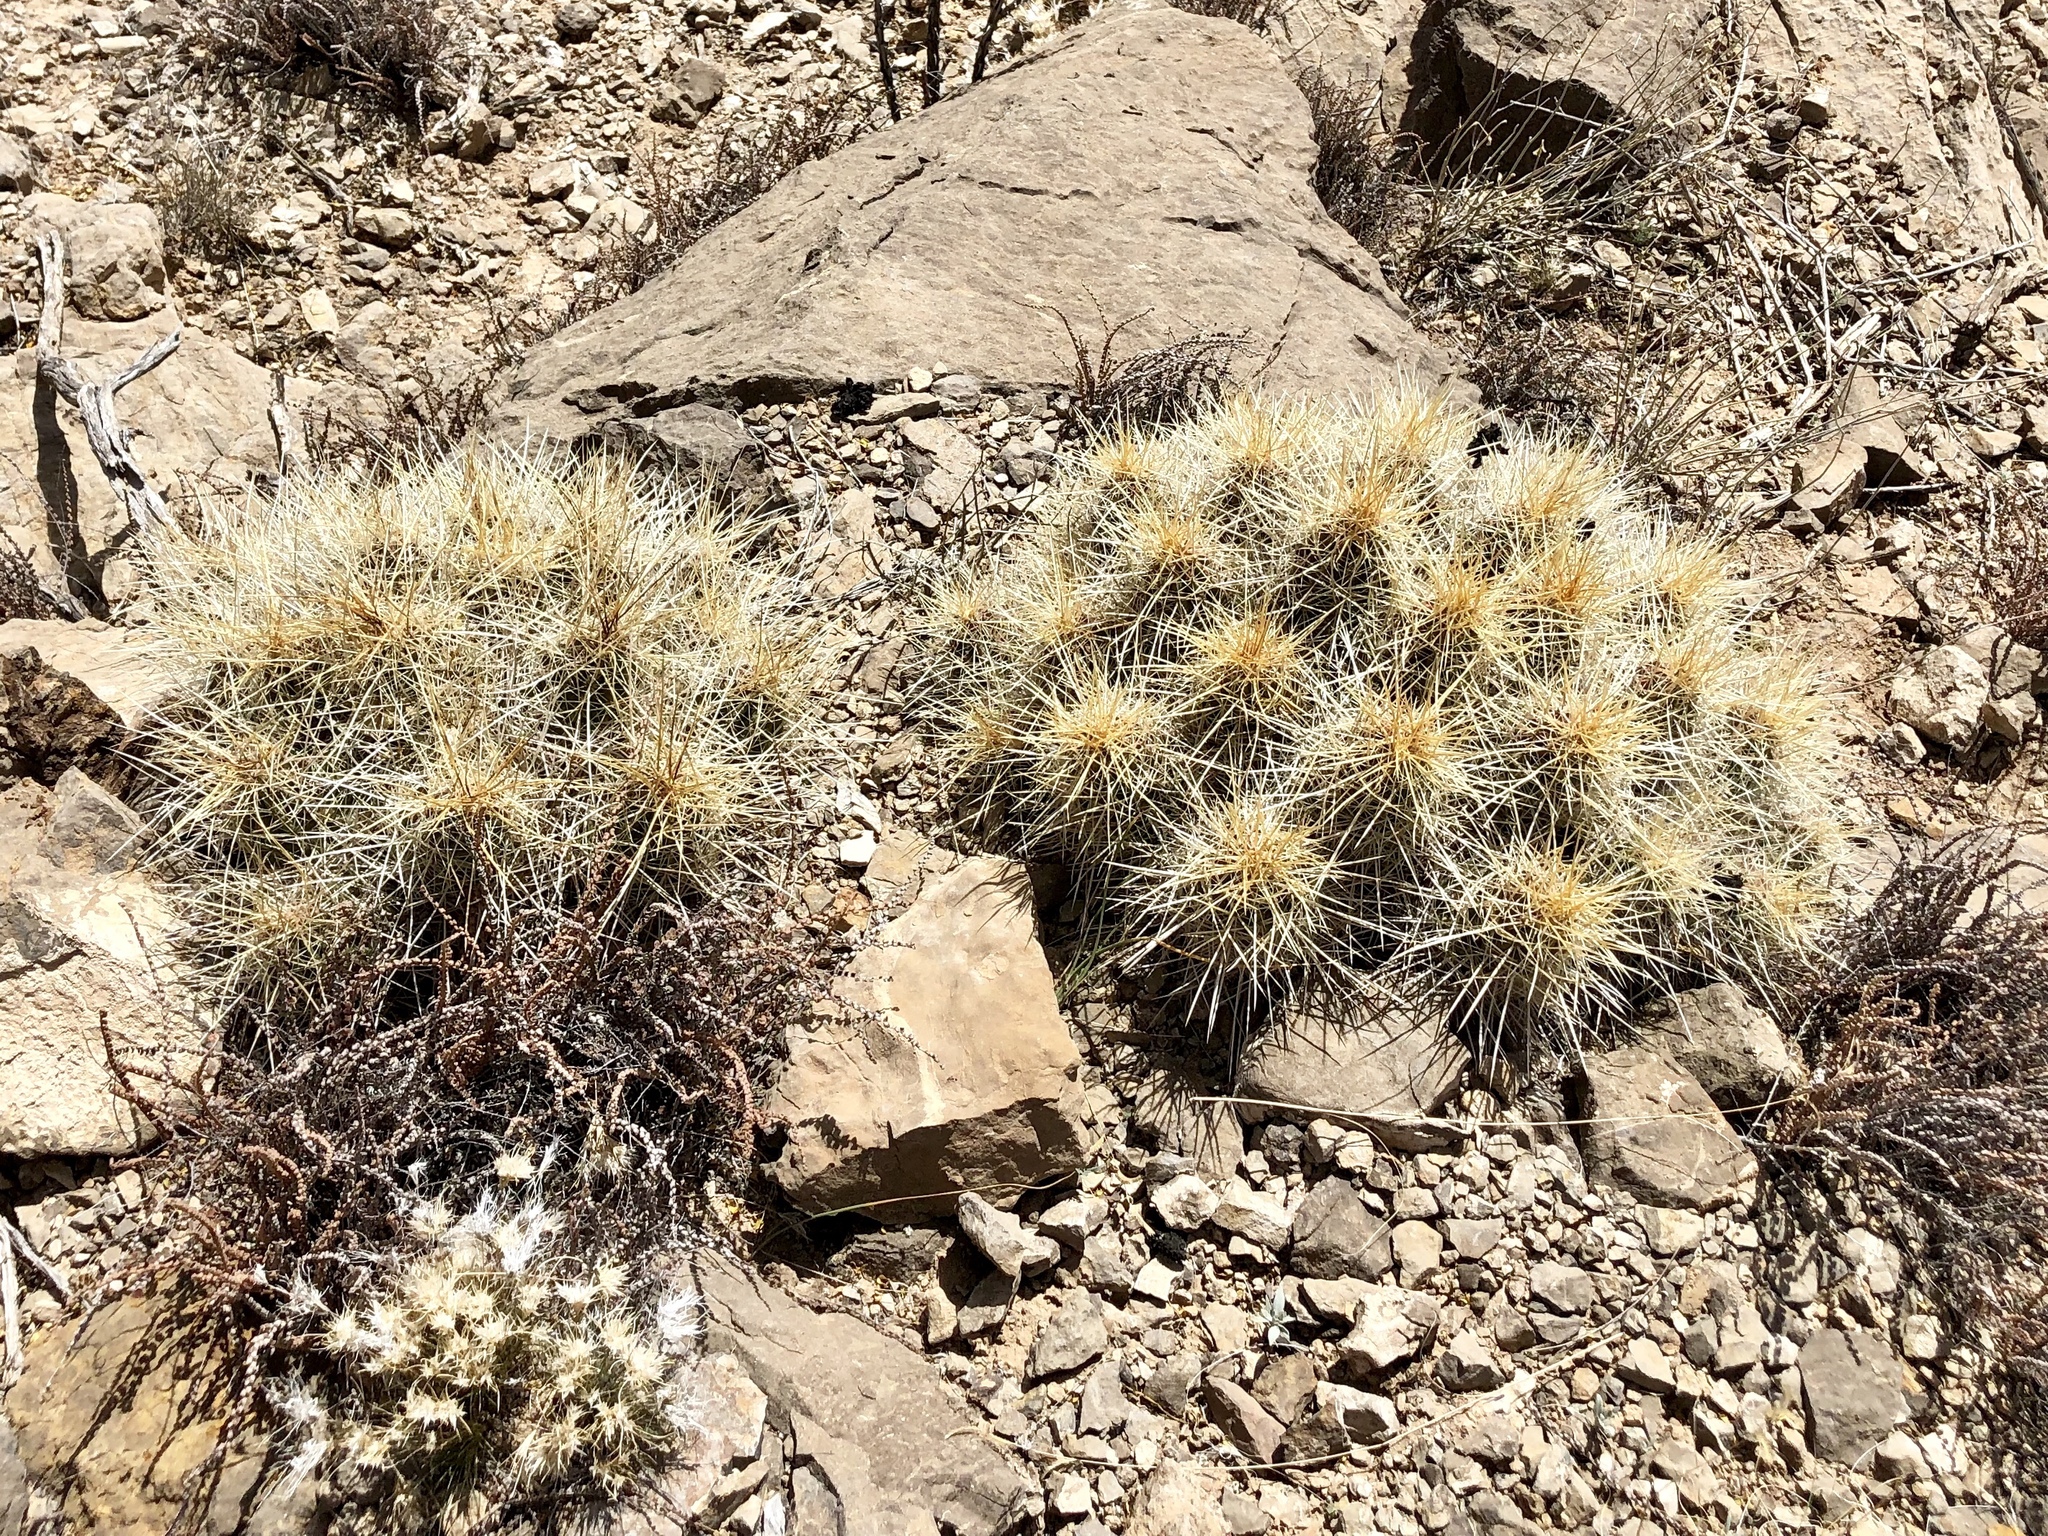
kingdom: Plantae
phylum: Tracheophyta
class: Magnoliopsida
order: Caryophyllales
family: Cactaceae
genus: Echinocereus
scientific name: Echinocereus stramineus
